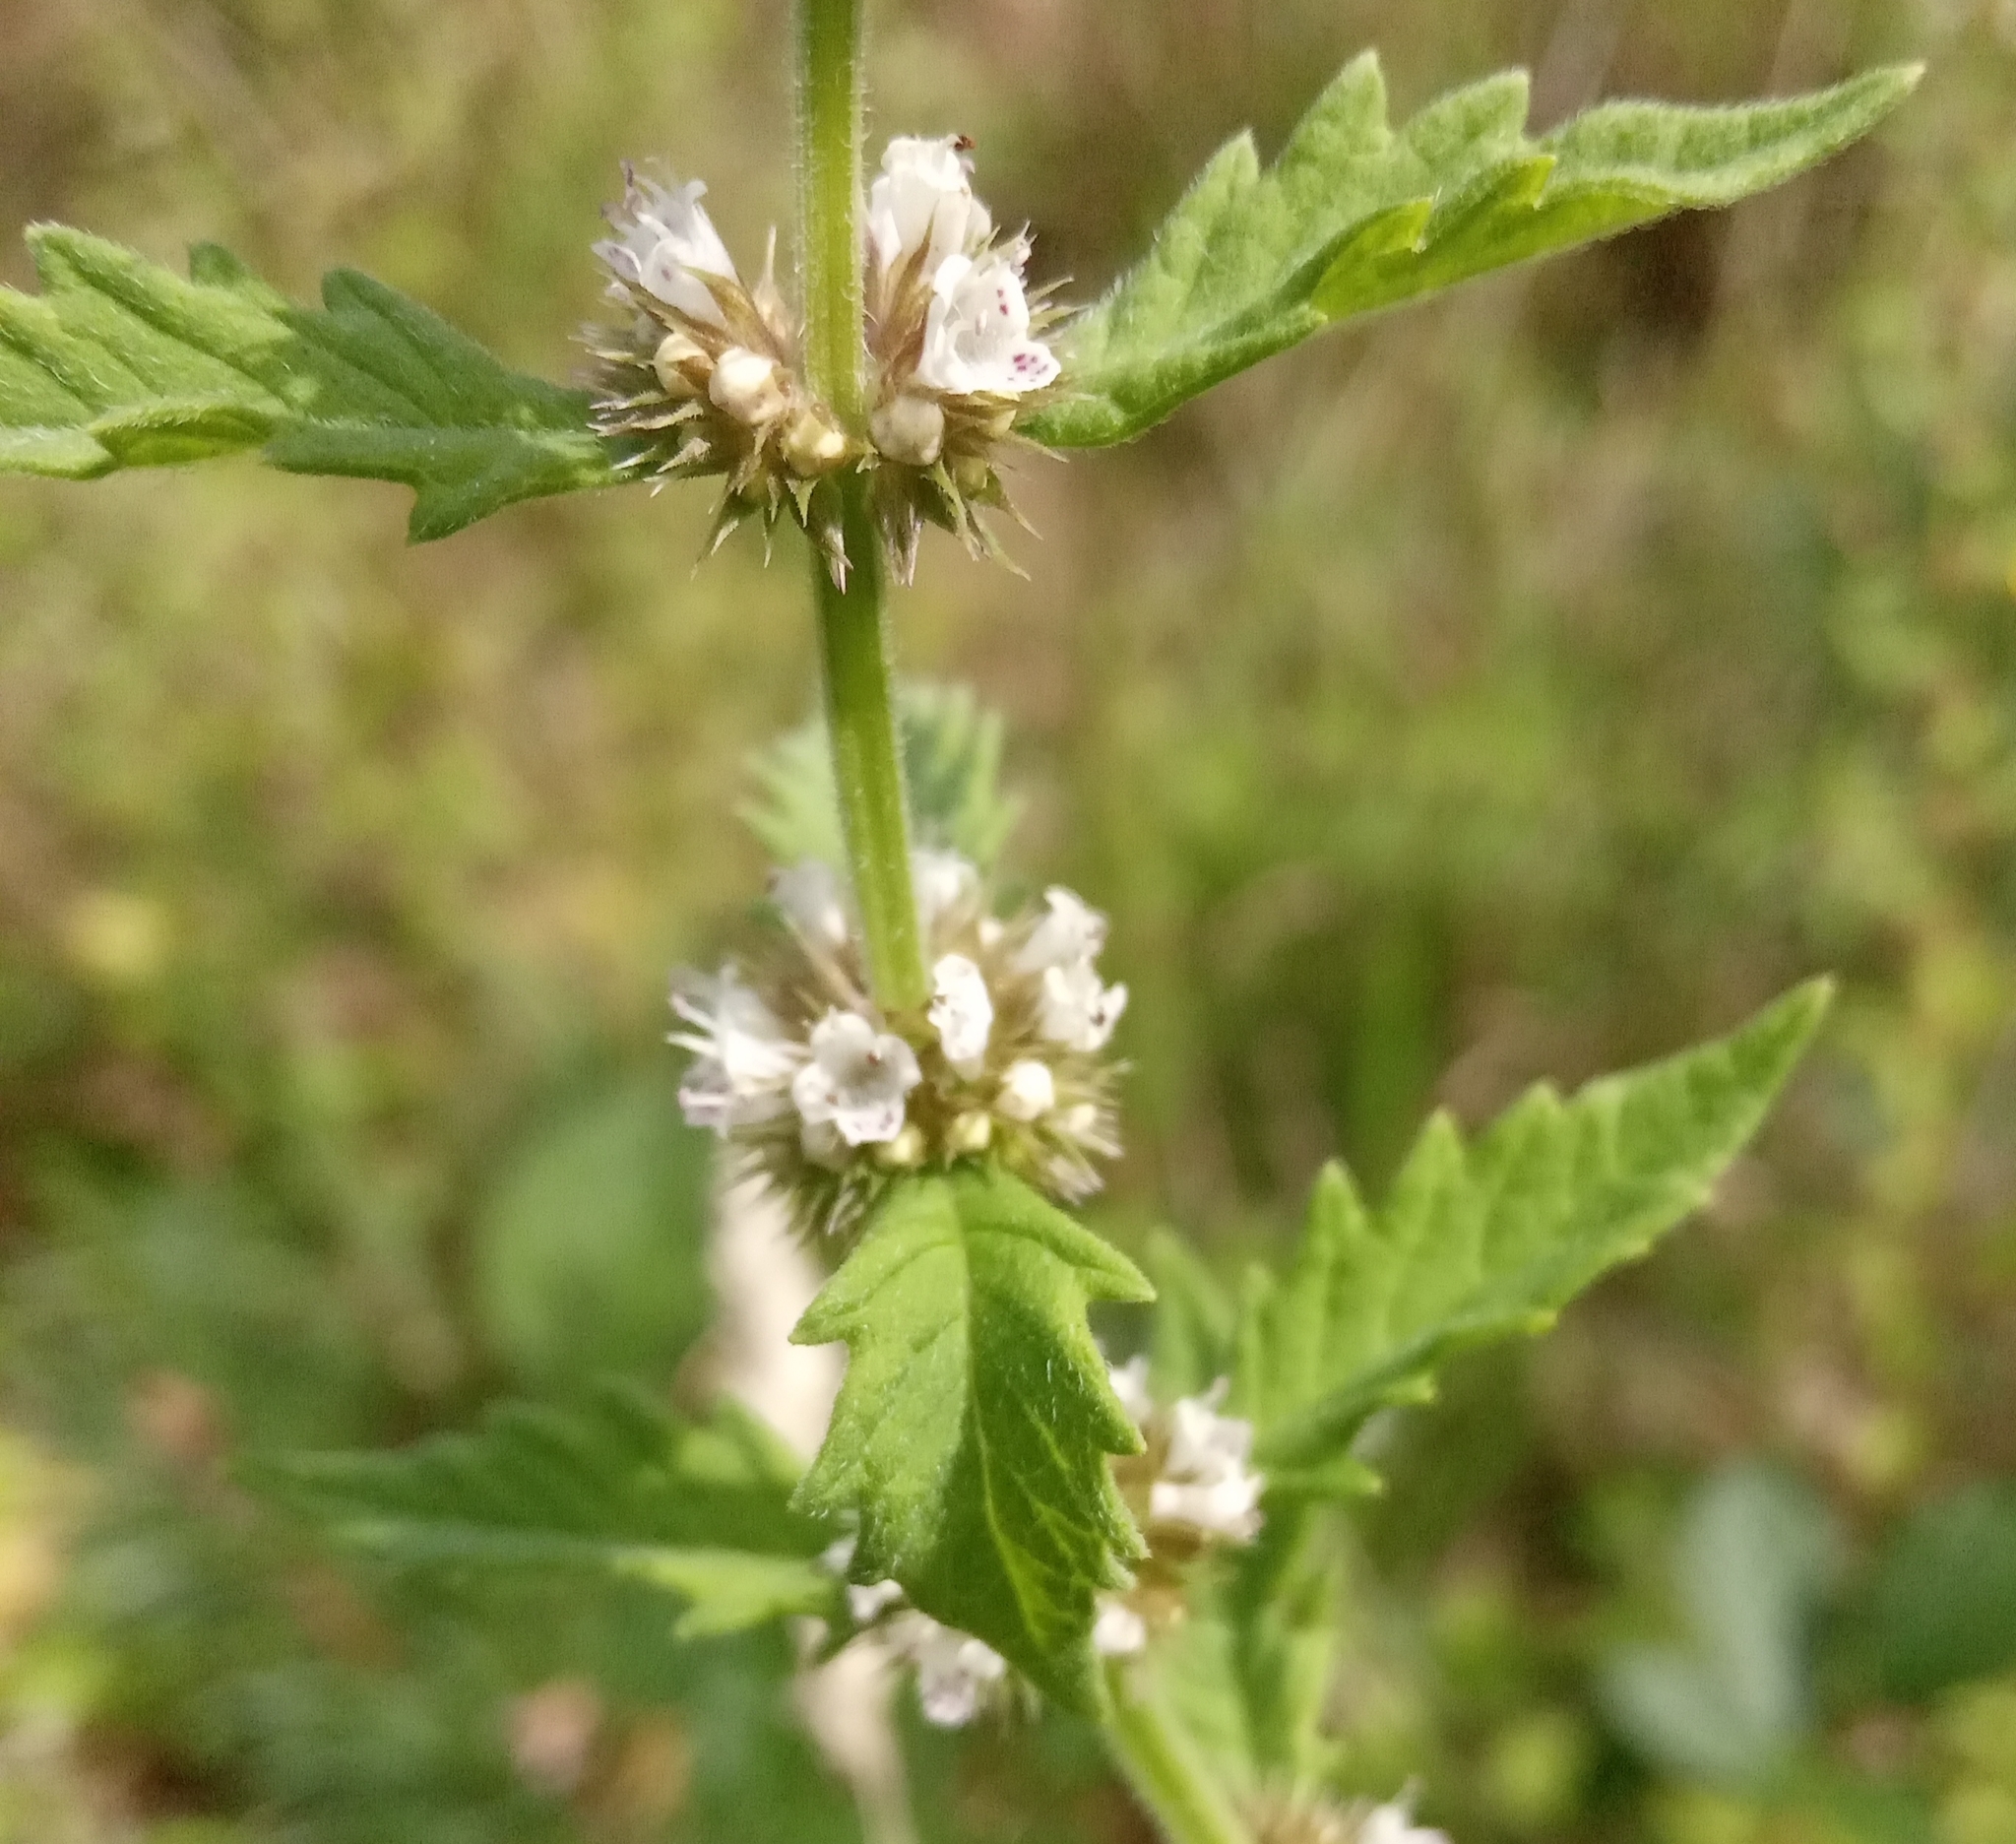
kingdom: Plantae
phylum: Tracheophyta
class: Magnoliopsida
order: Lamiales
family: Lamiaceae
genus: Lycopus
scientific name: Lycopus europaeus
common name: European bugleweed
